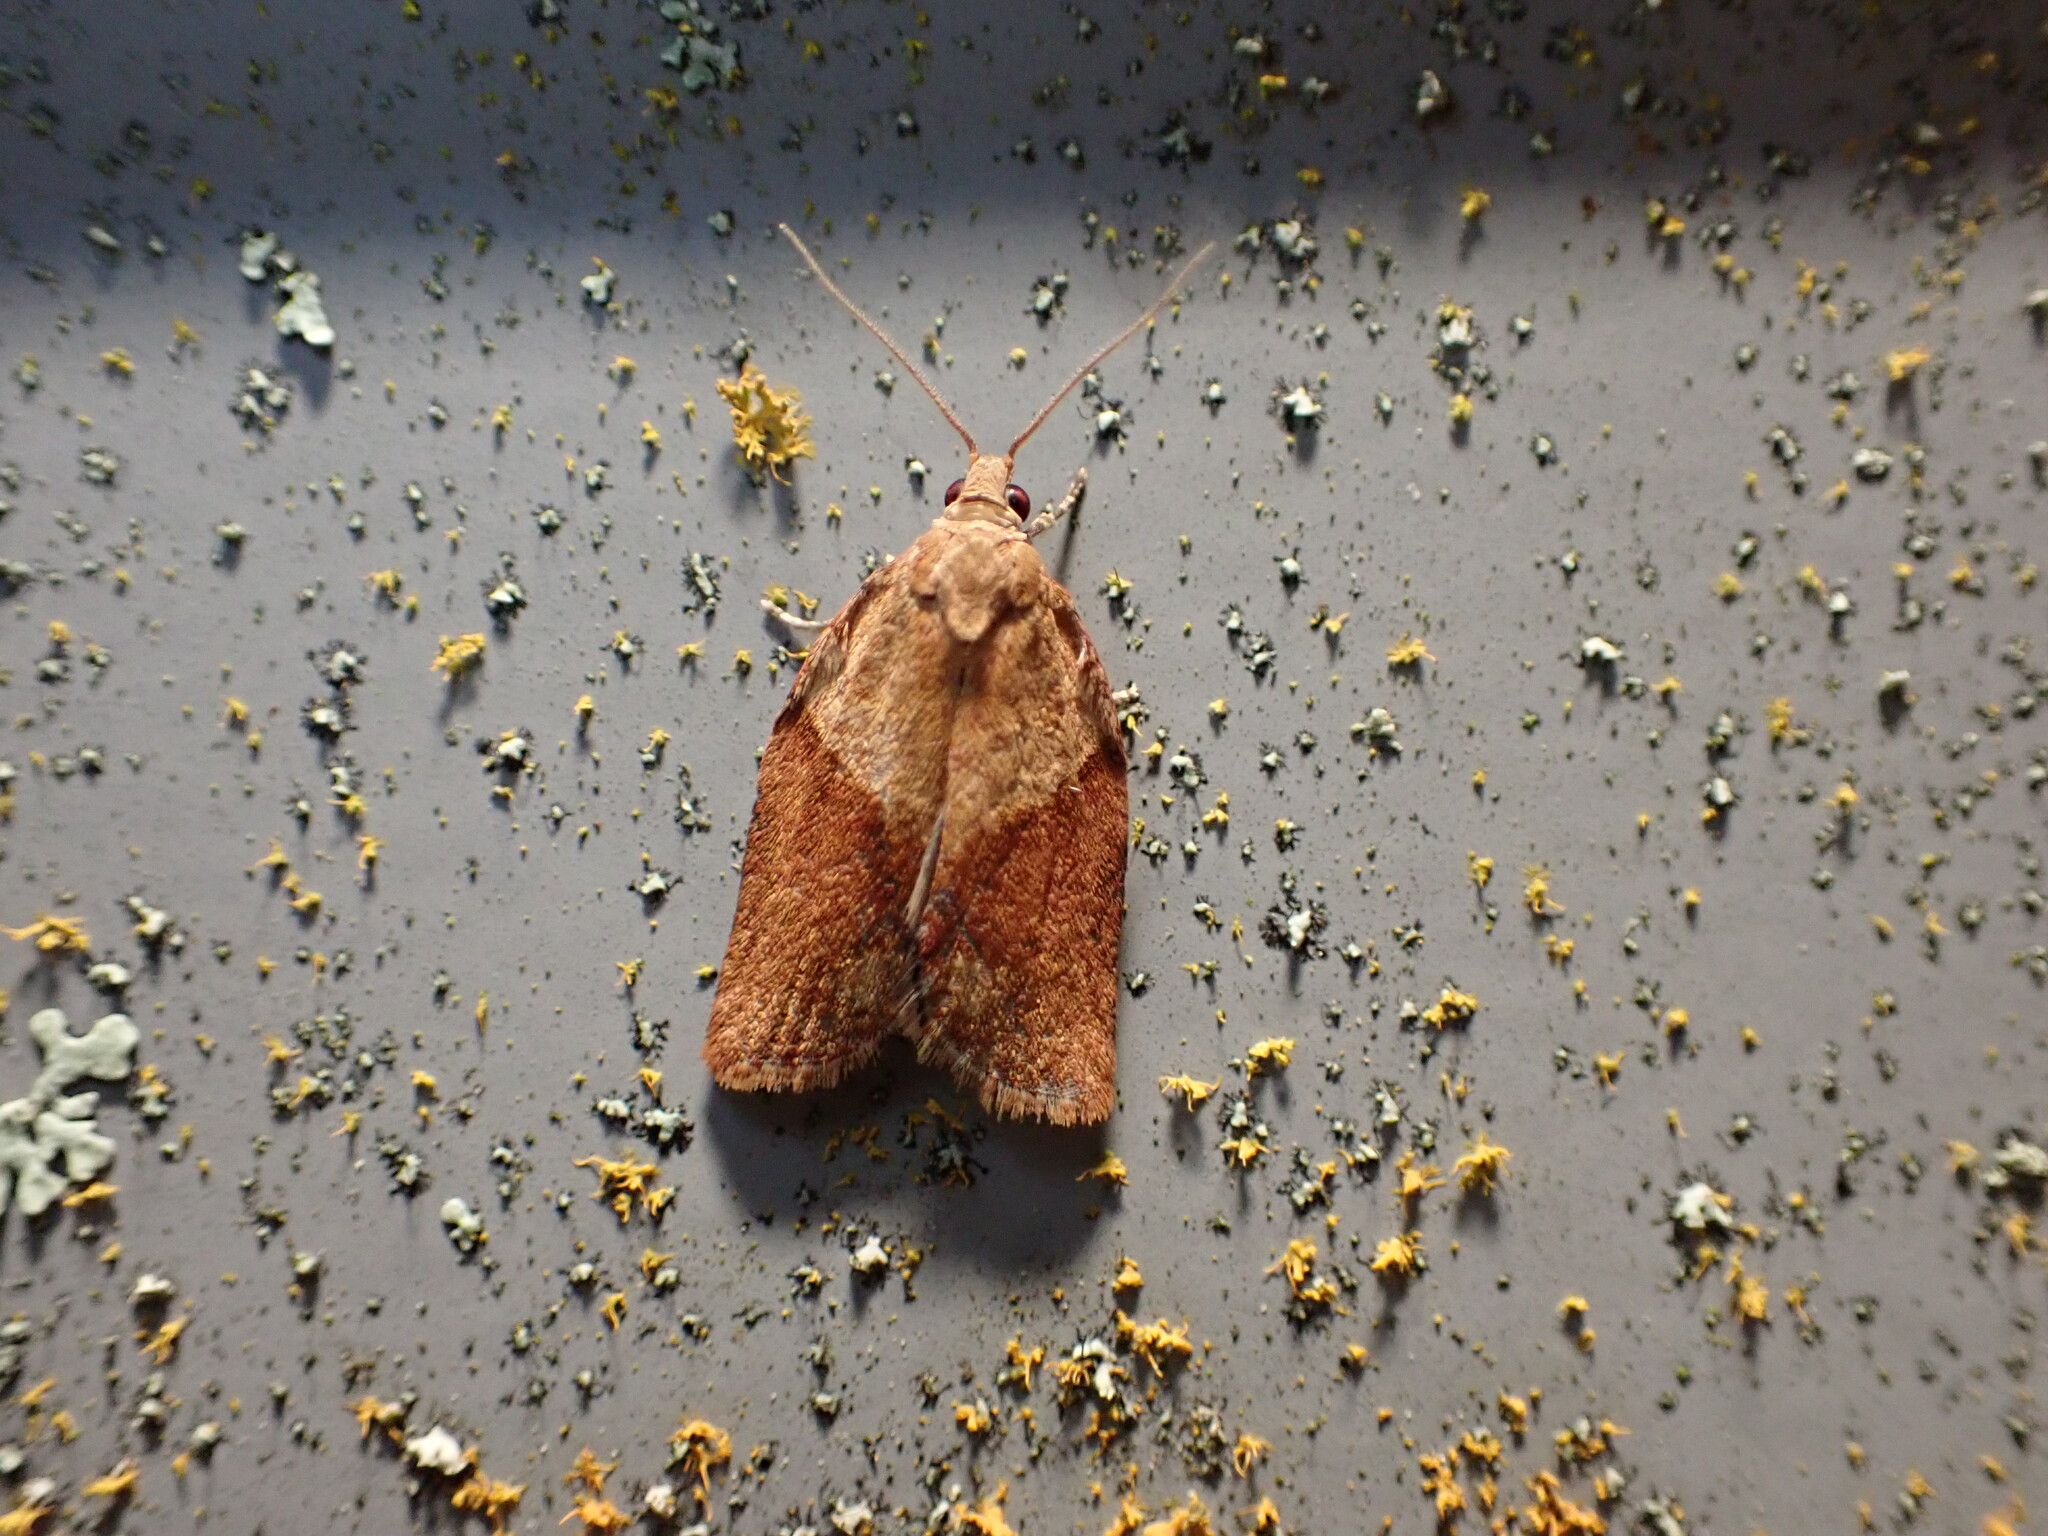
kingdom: Animalia
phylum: Arthropoda
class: Insecta
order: Lepidoptera
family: Tortricidae
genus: Epiphyas
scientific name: Epiphyas postvittana
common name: Light brown apple moth
